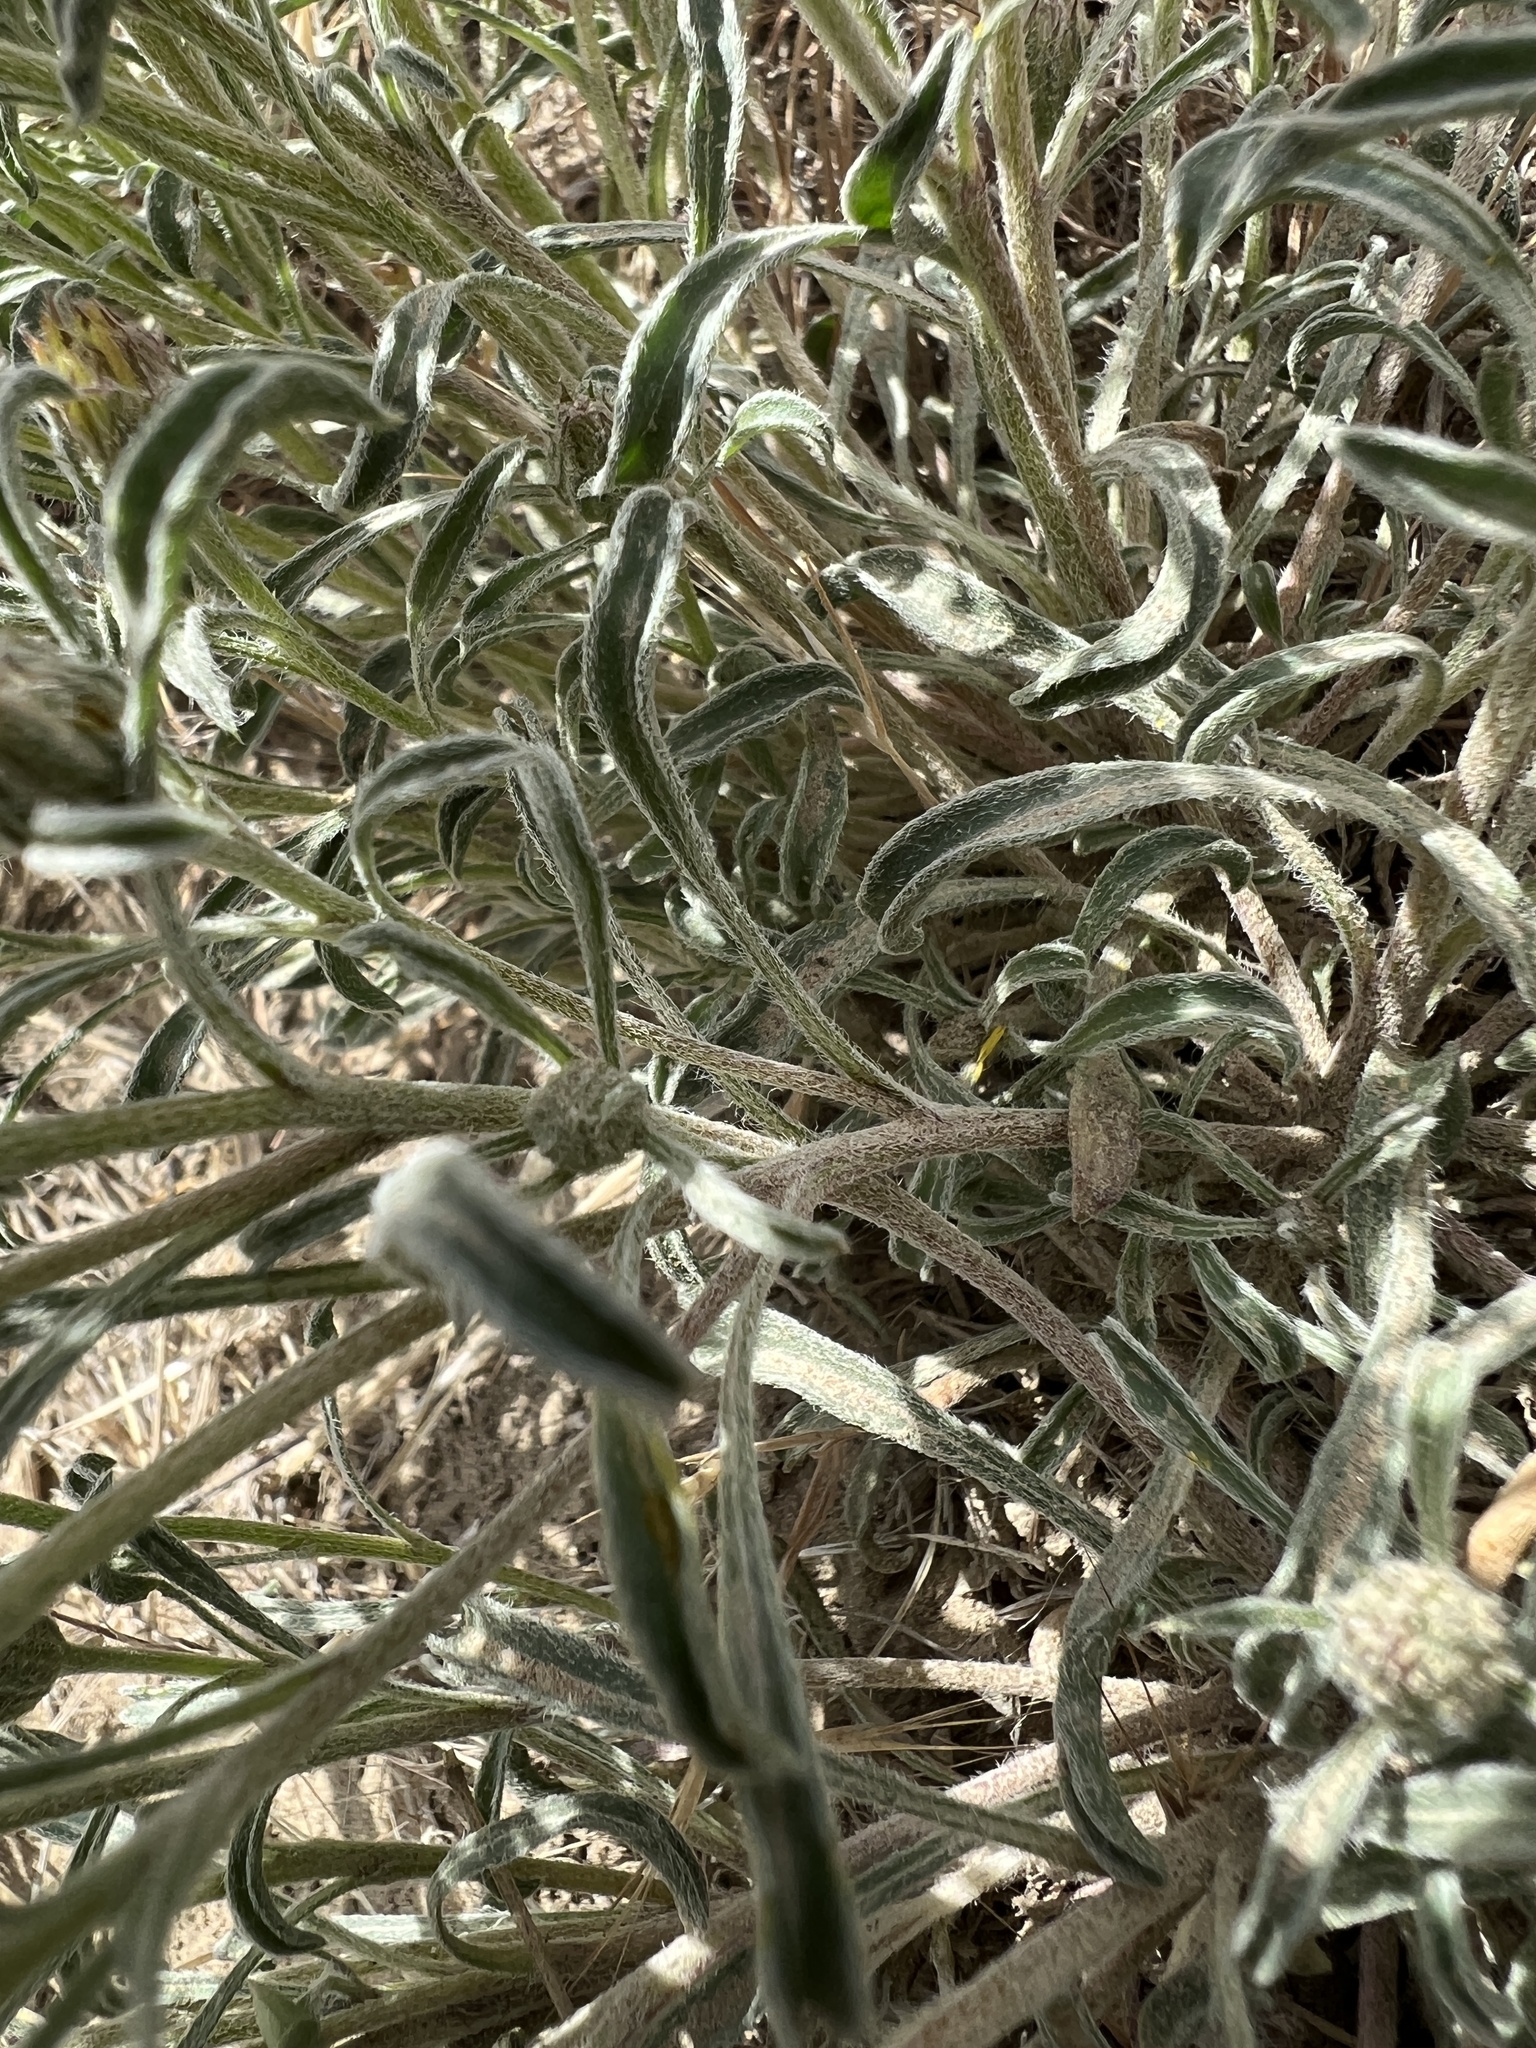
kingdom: Plantae
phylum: Tracheophyta
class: Magnoliopsida
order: Asterales
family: Asteraceae
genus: Townsendia
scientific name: Townsendia florifera
